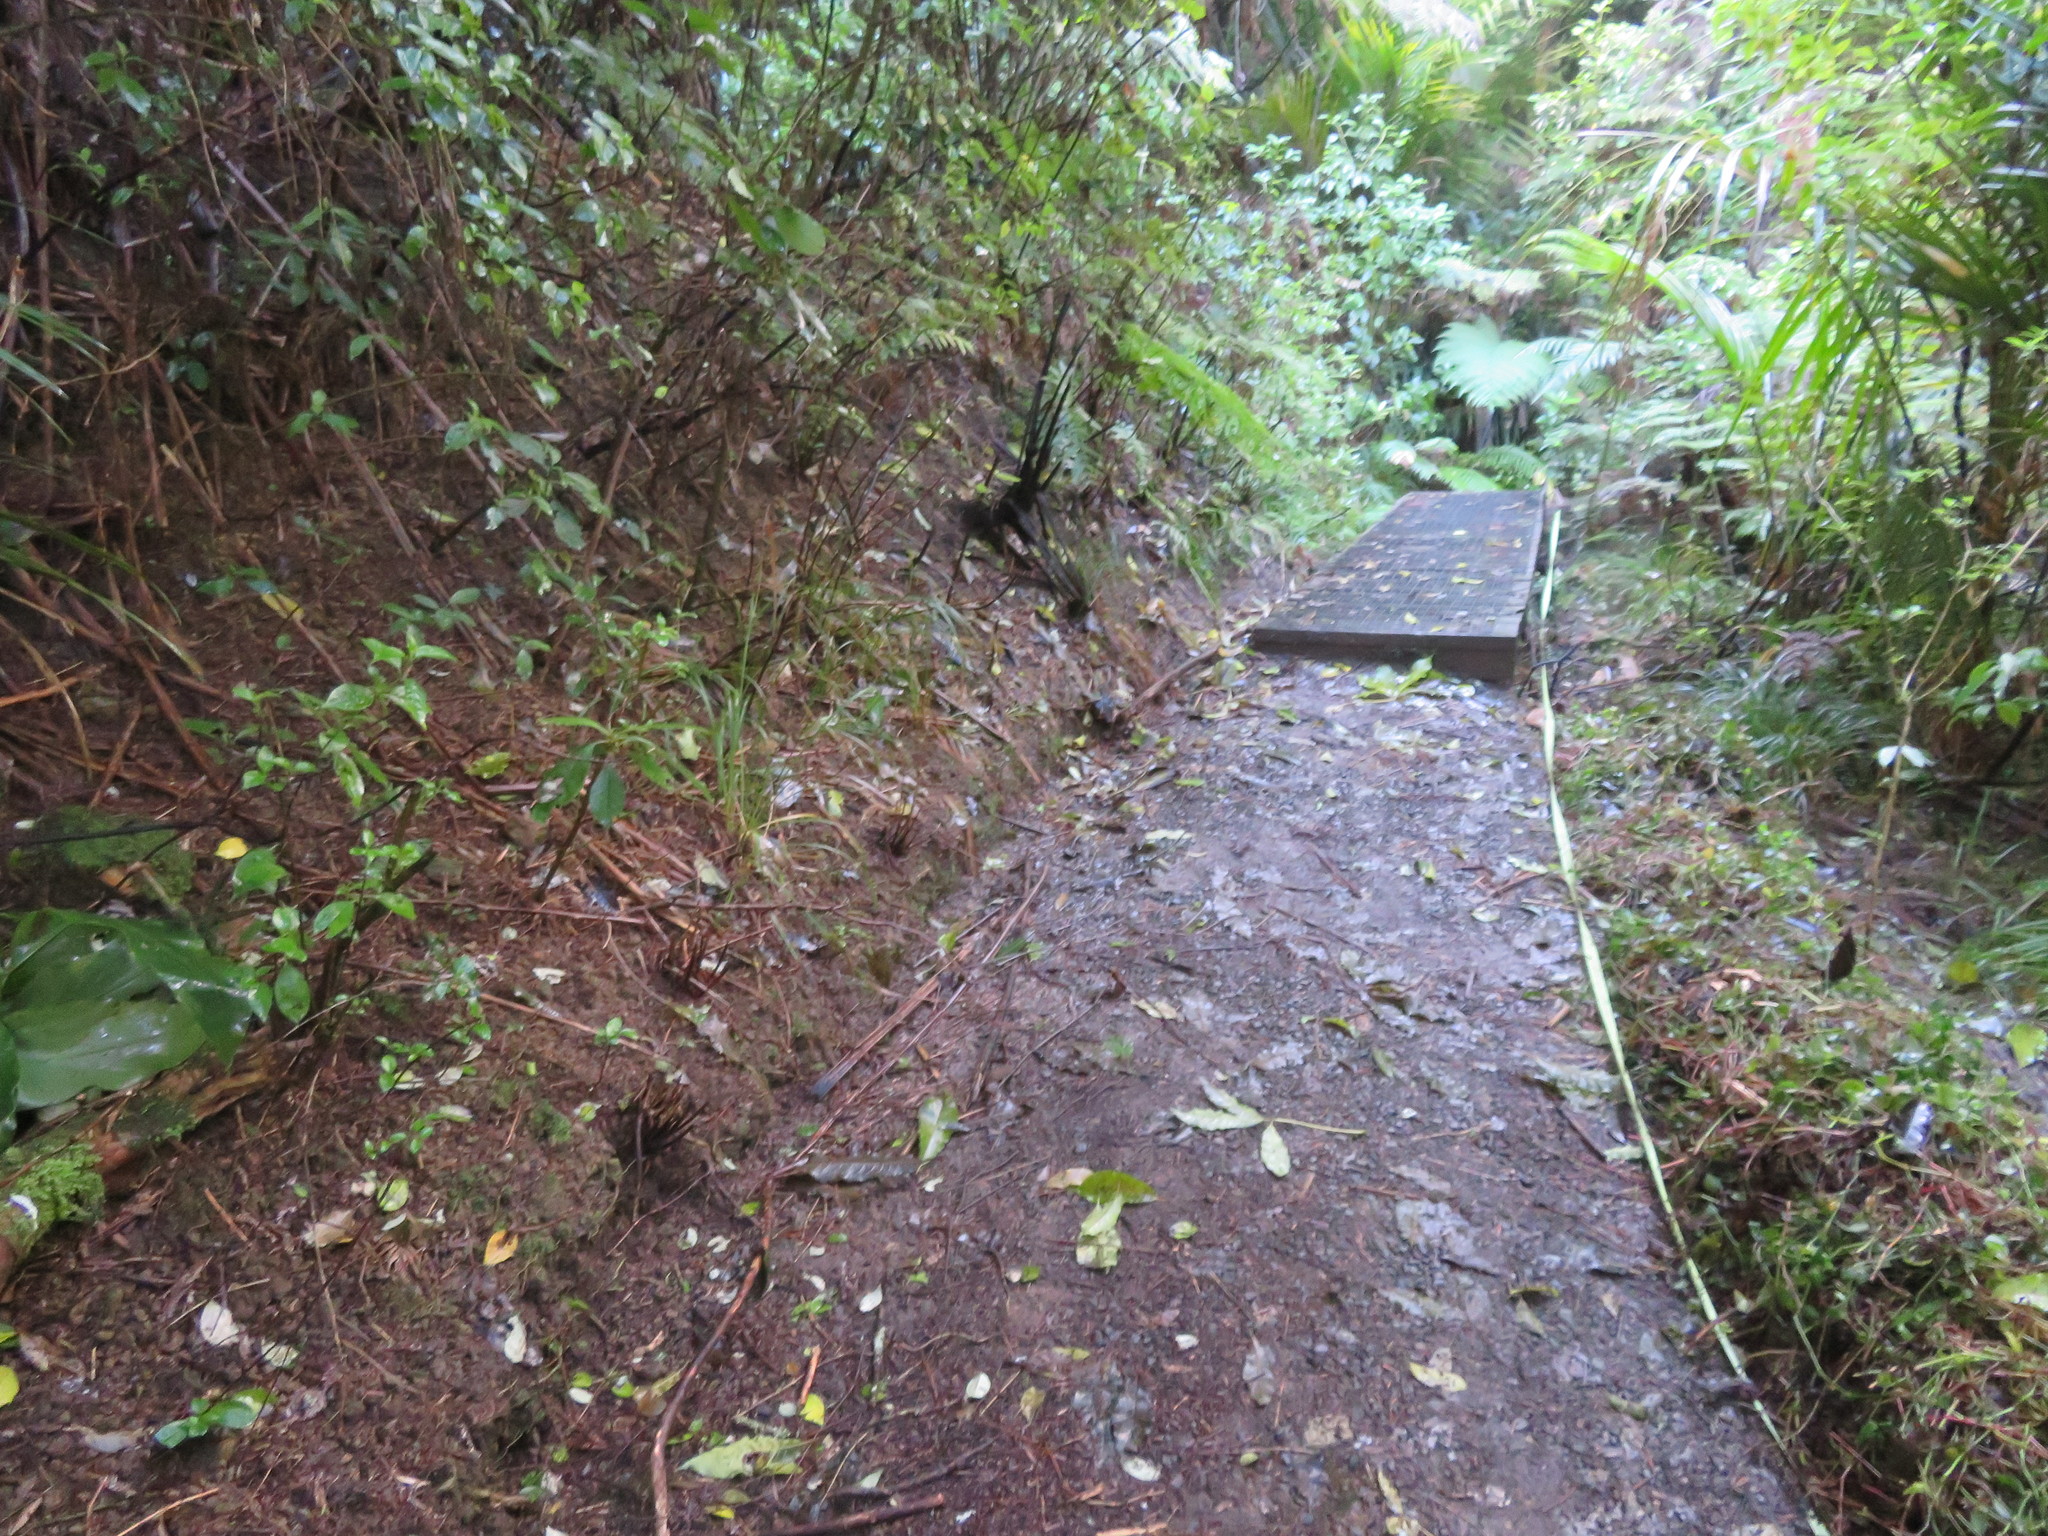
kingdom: Plantae
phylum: Tracheophyta
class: Liliopsida
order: Commelinales
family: Commelinaceae
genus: Tradescantia
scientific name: Tradescantia fluminensis
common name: Wandering-jew
